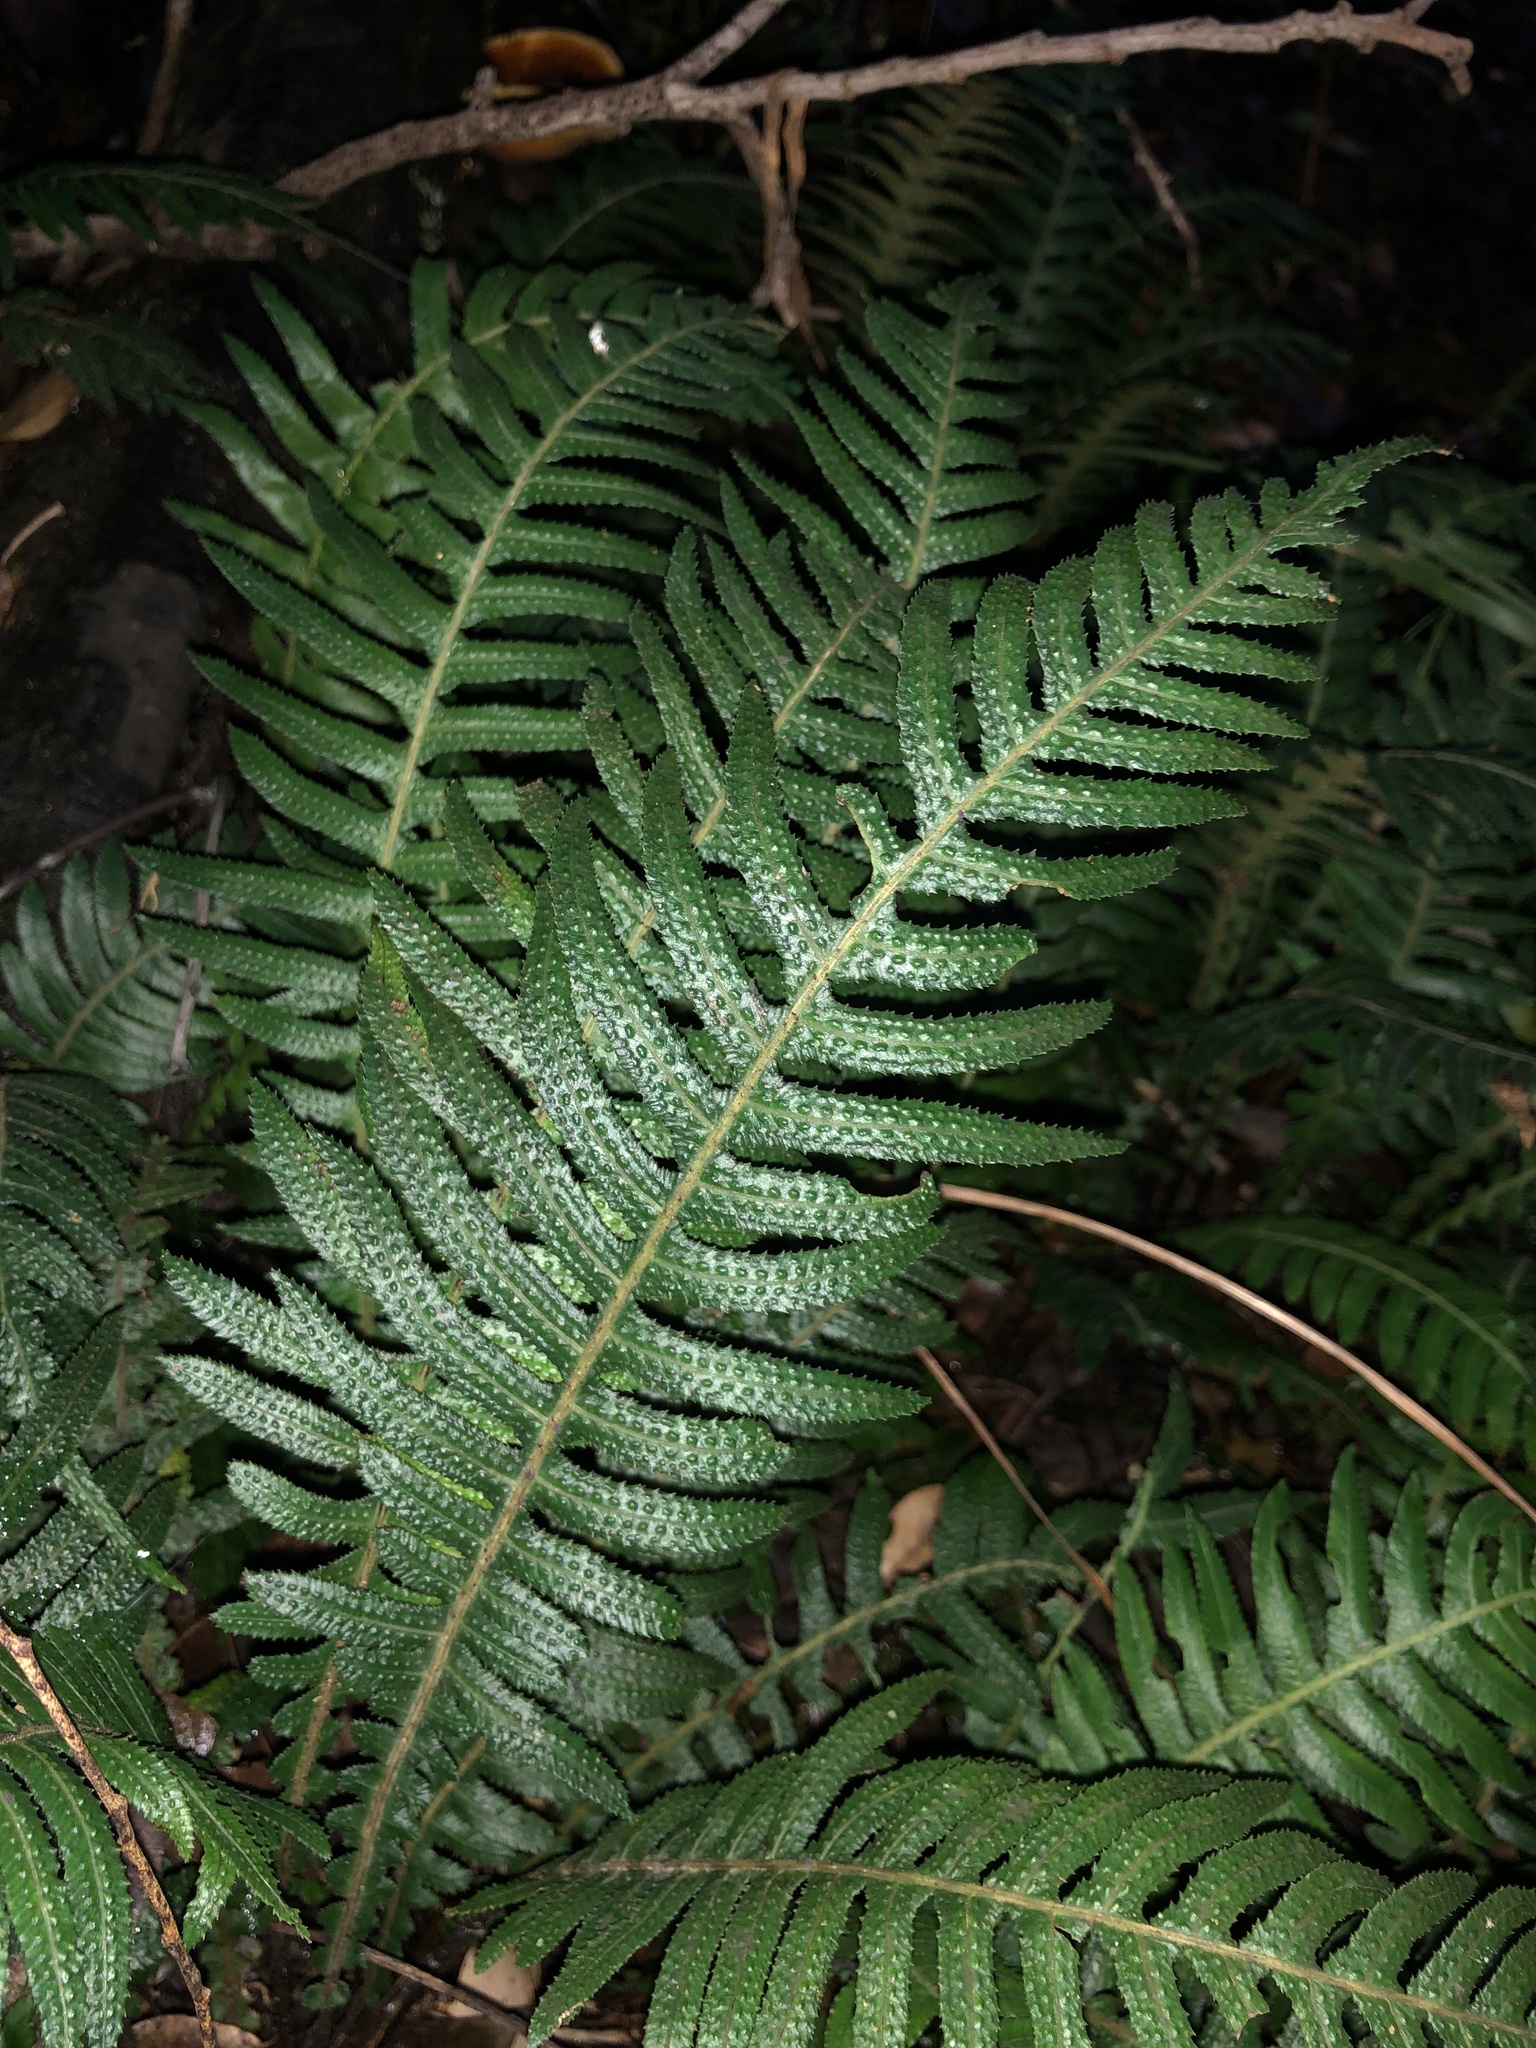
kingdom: Plantae
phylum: Tracheophyta
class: Polypodiopsida
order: Polypodiales
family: Blechnaceae
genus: Doodia
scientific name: Doodia aspera
